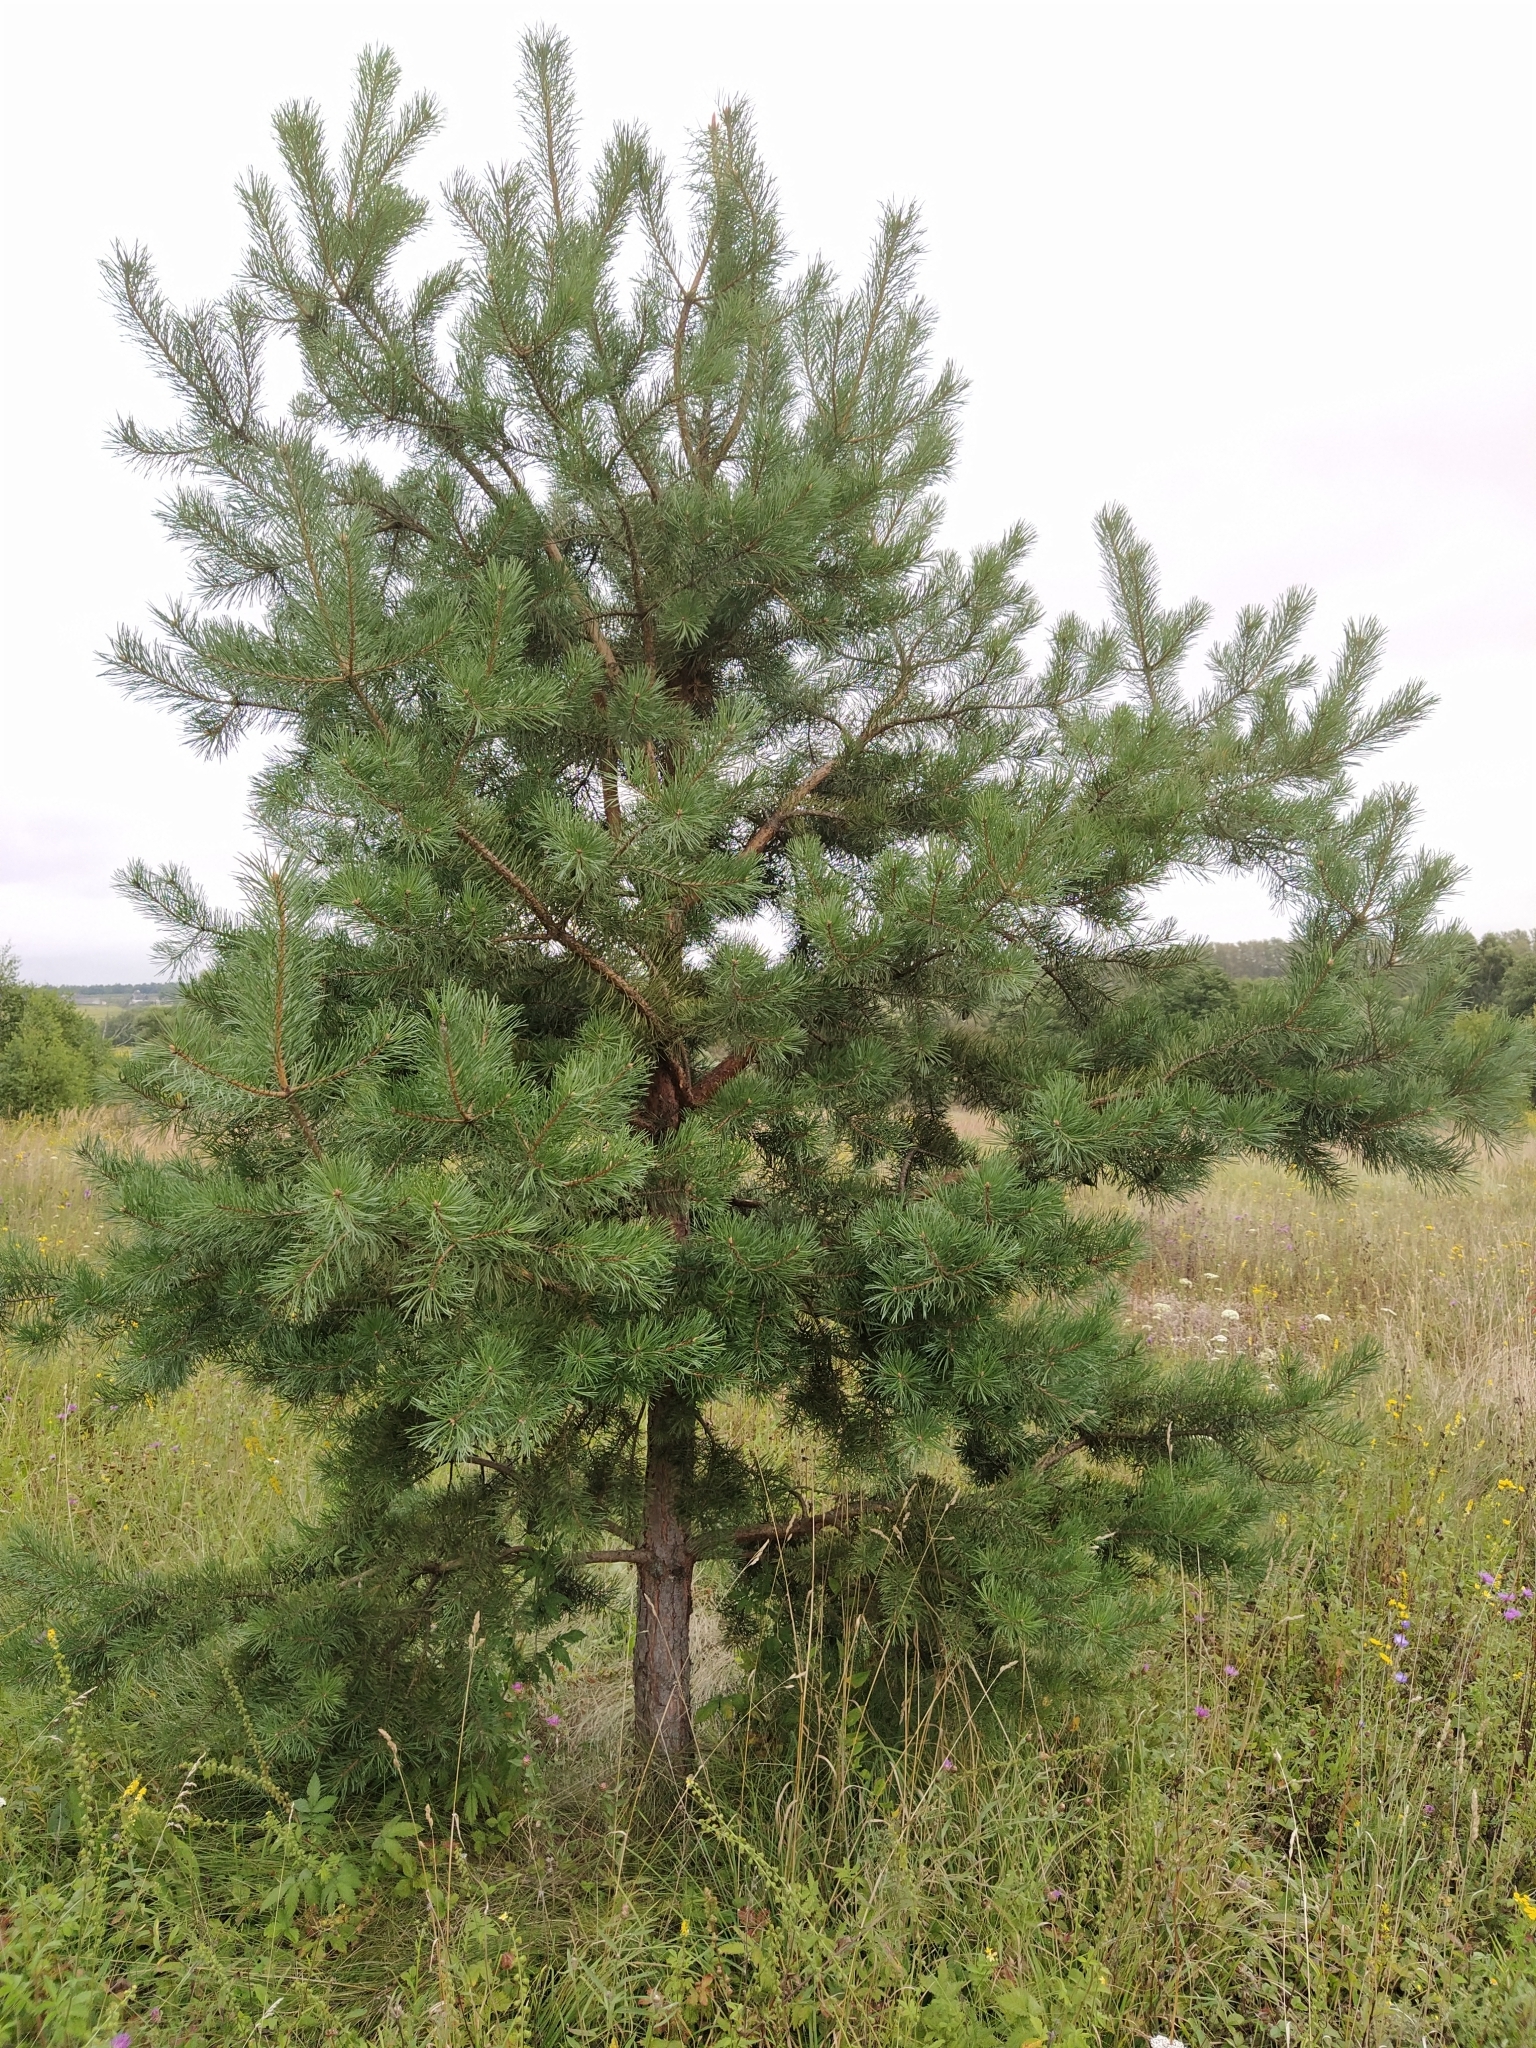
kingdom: Plantae
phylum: Tracheophyta
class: Pinopsida
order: Pinales
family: Pinaceae
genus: Pinus
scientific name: Pinus sylvestris
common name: Scots pine
